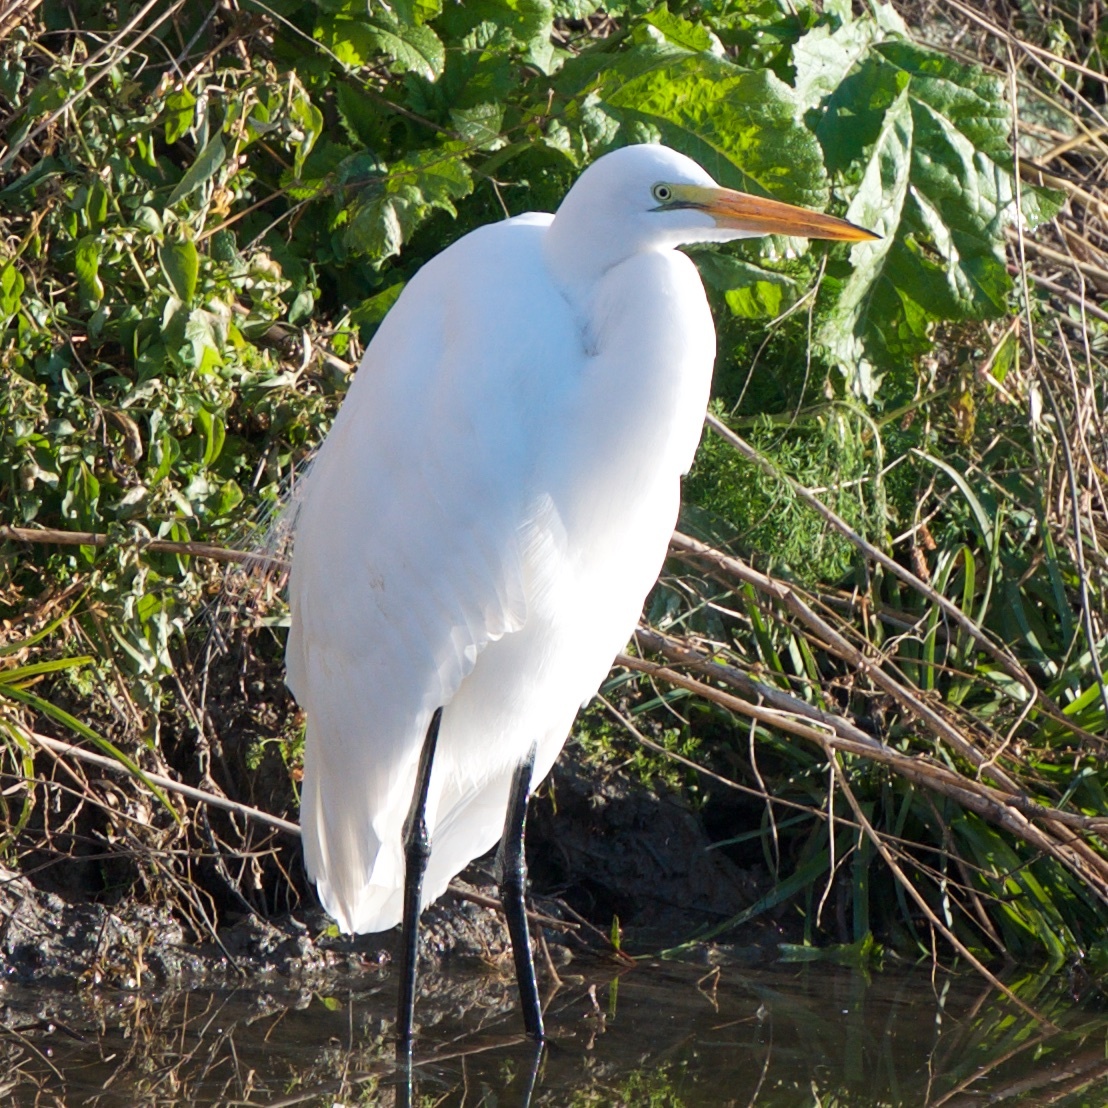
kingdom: Animalia
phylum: Chordata
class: Aves
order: Pelecaniformes
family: Ardeidae
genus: Ardea
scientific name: Ardea alba
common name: Great egret
